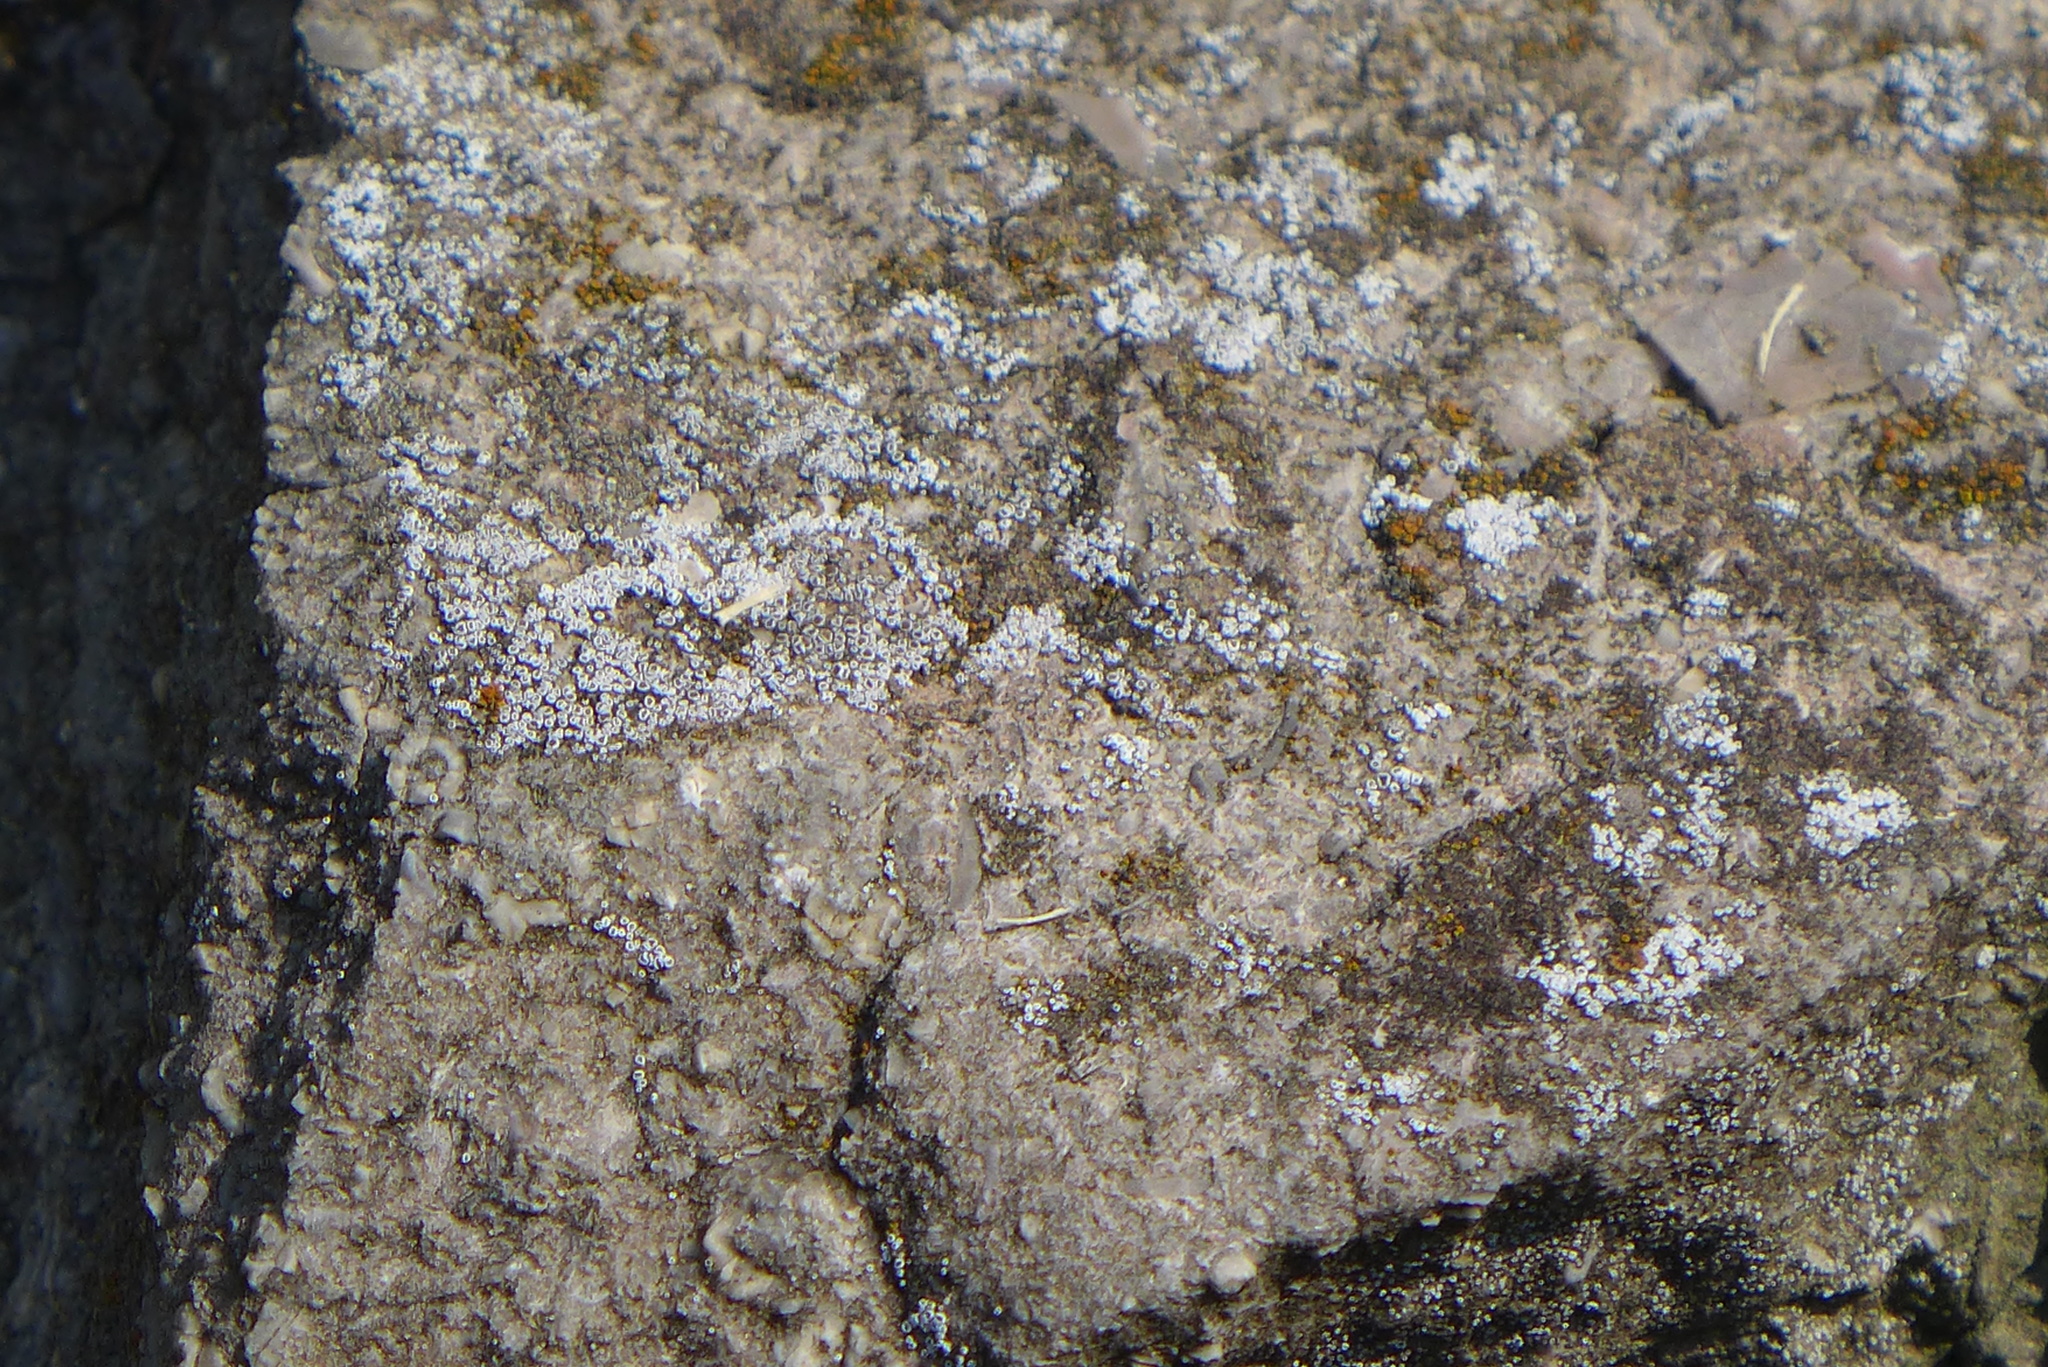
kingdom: Fungi
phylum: Ascomycota
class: Lecanoromycetes
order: Lecanorales
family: Lecanoraceae
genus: Polyozosia
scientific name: Polyozosia dispersa
